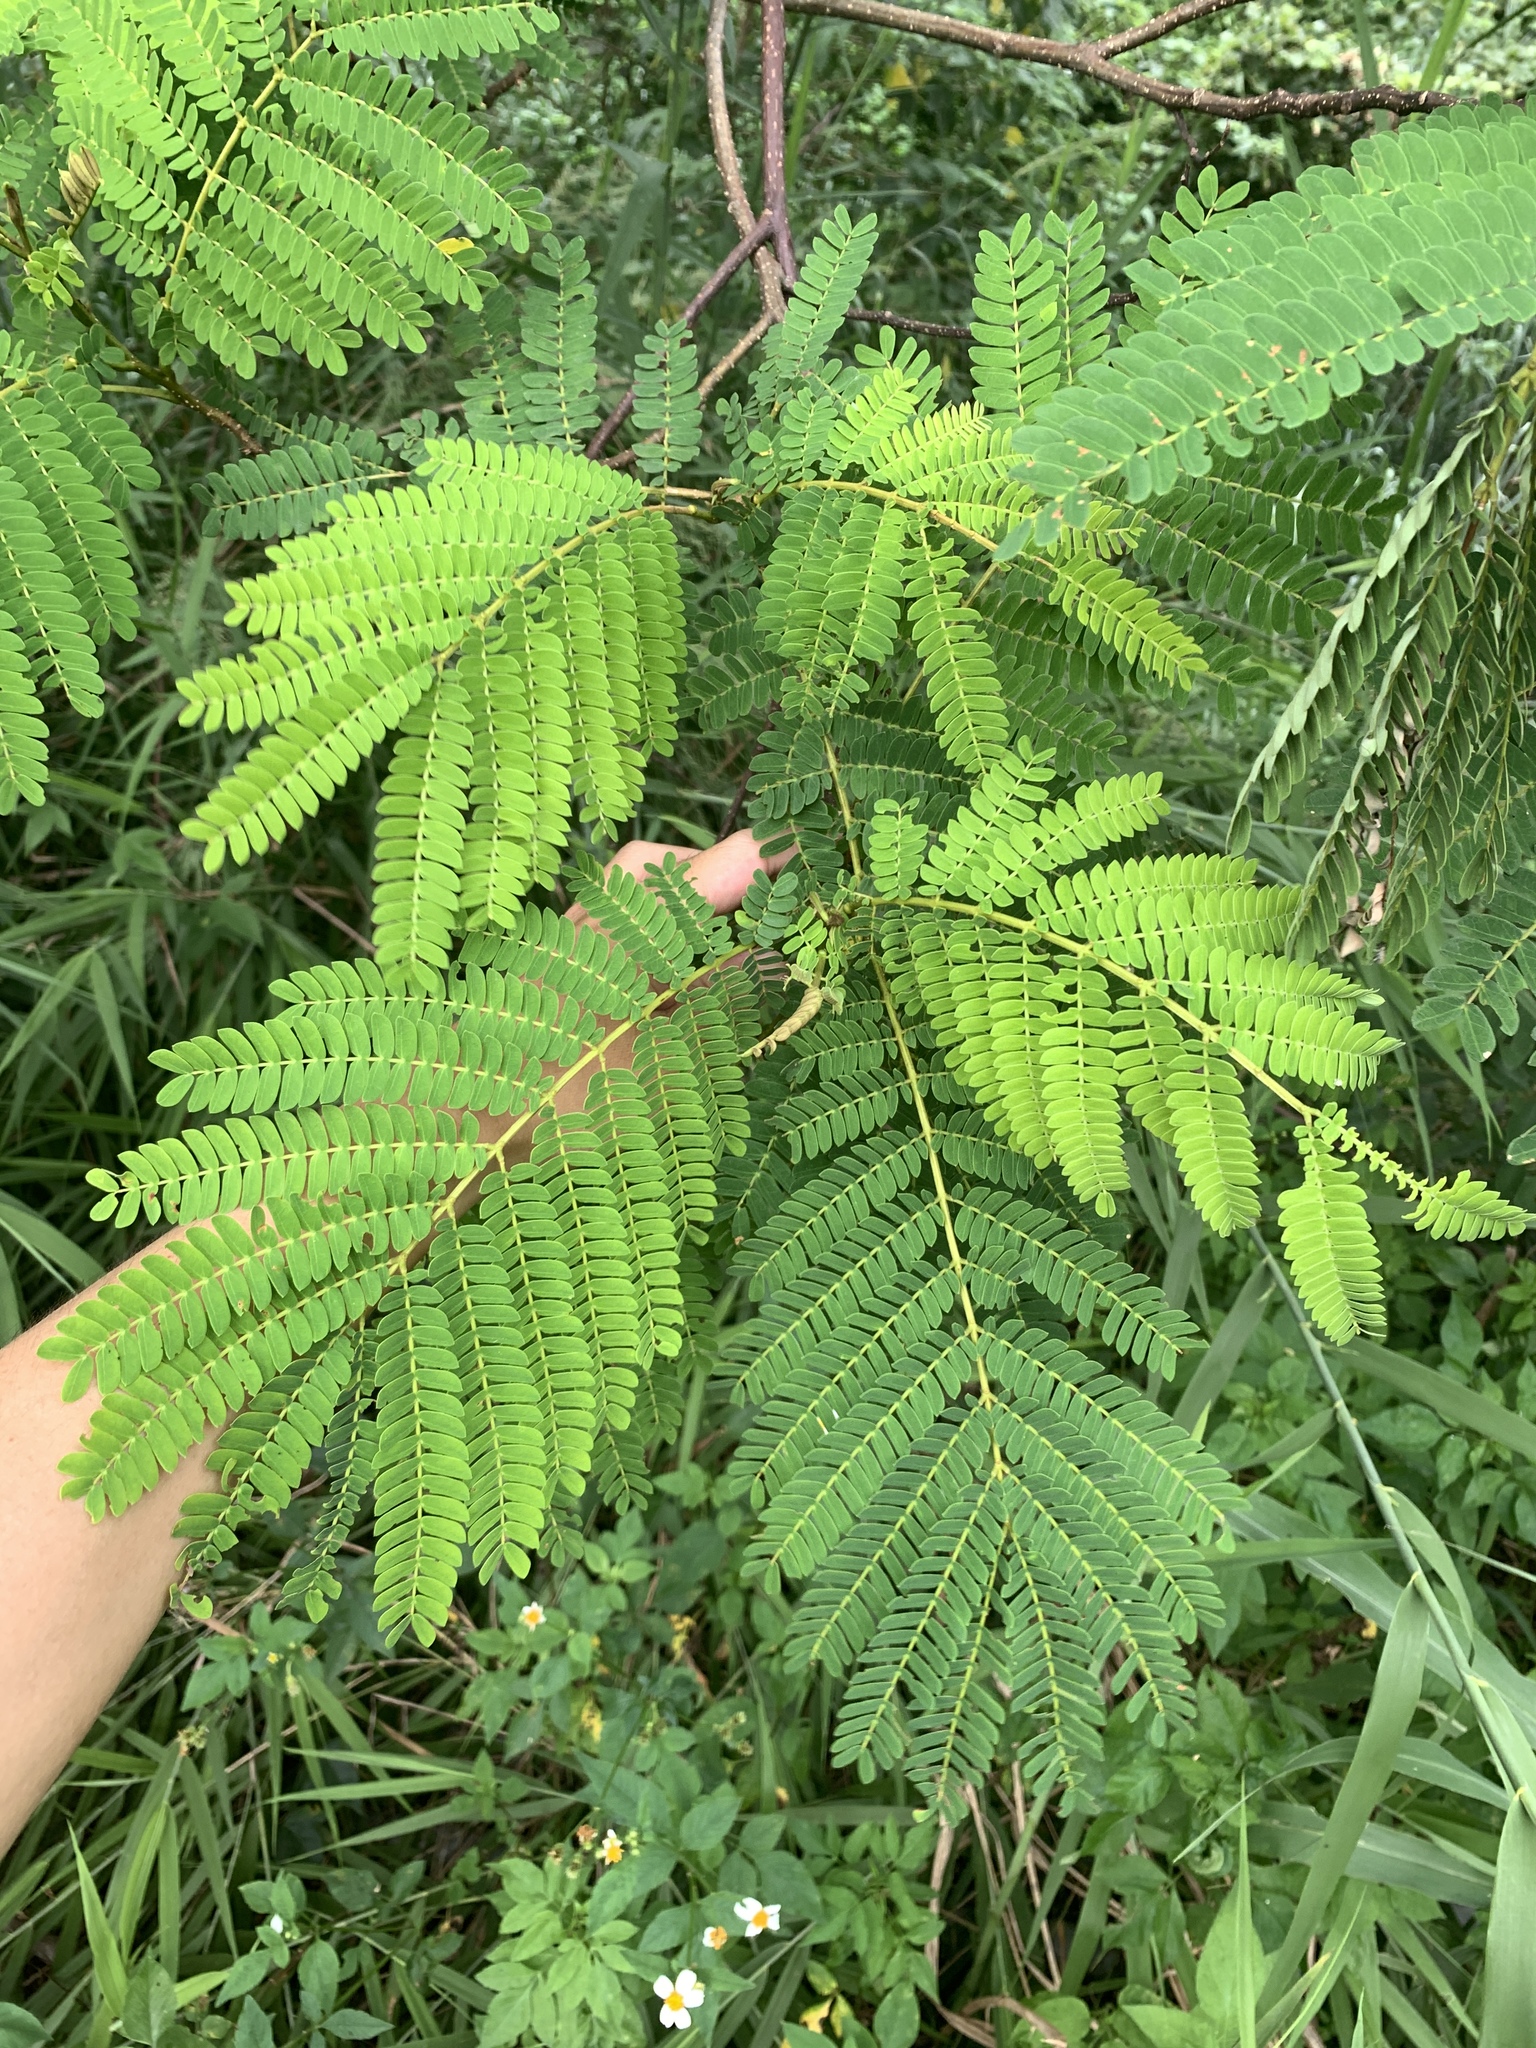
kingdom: Plantae
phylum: Tracheophyta
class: Magnoliopsida
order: Fabales
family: Fabaceae
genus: Falcataria
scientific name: Falcataria falcata
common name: Moluccan albizia
